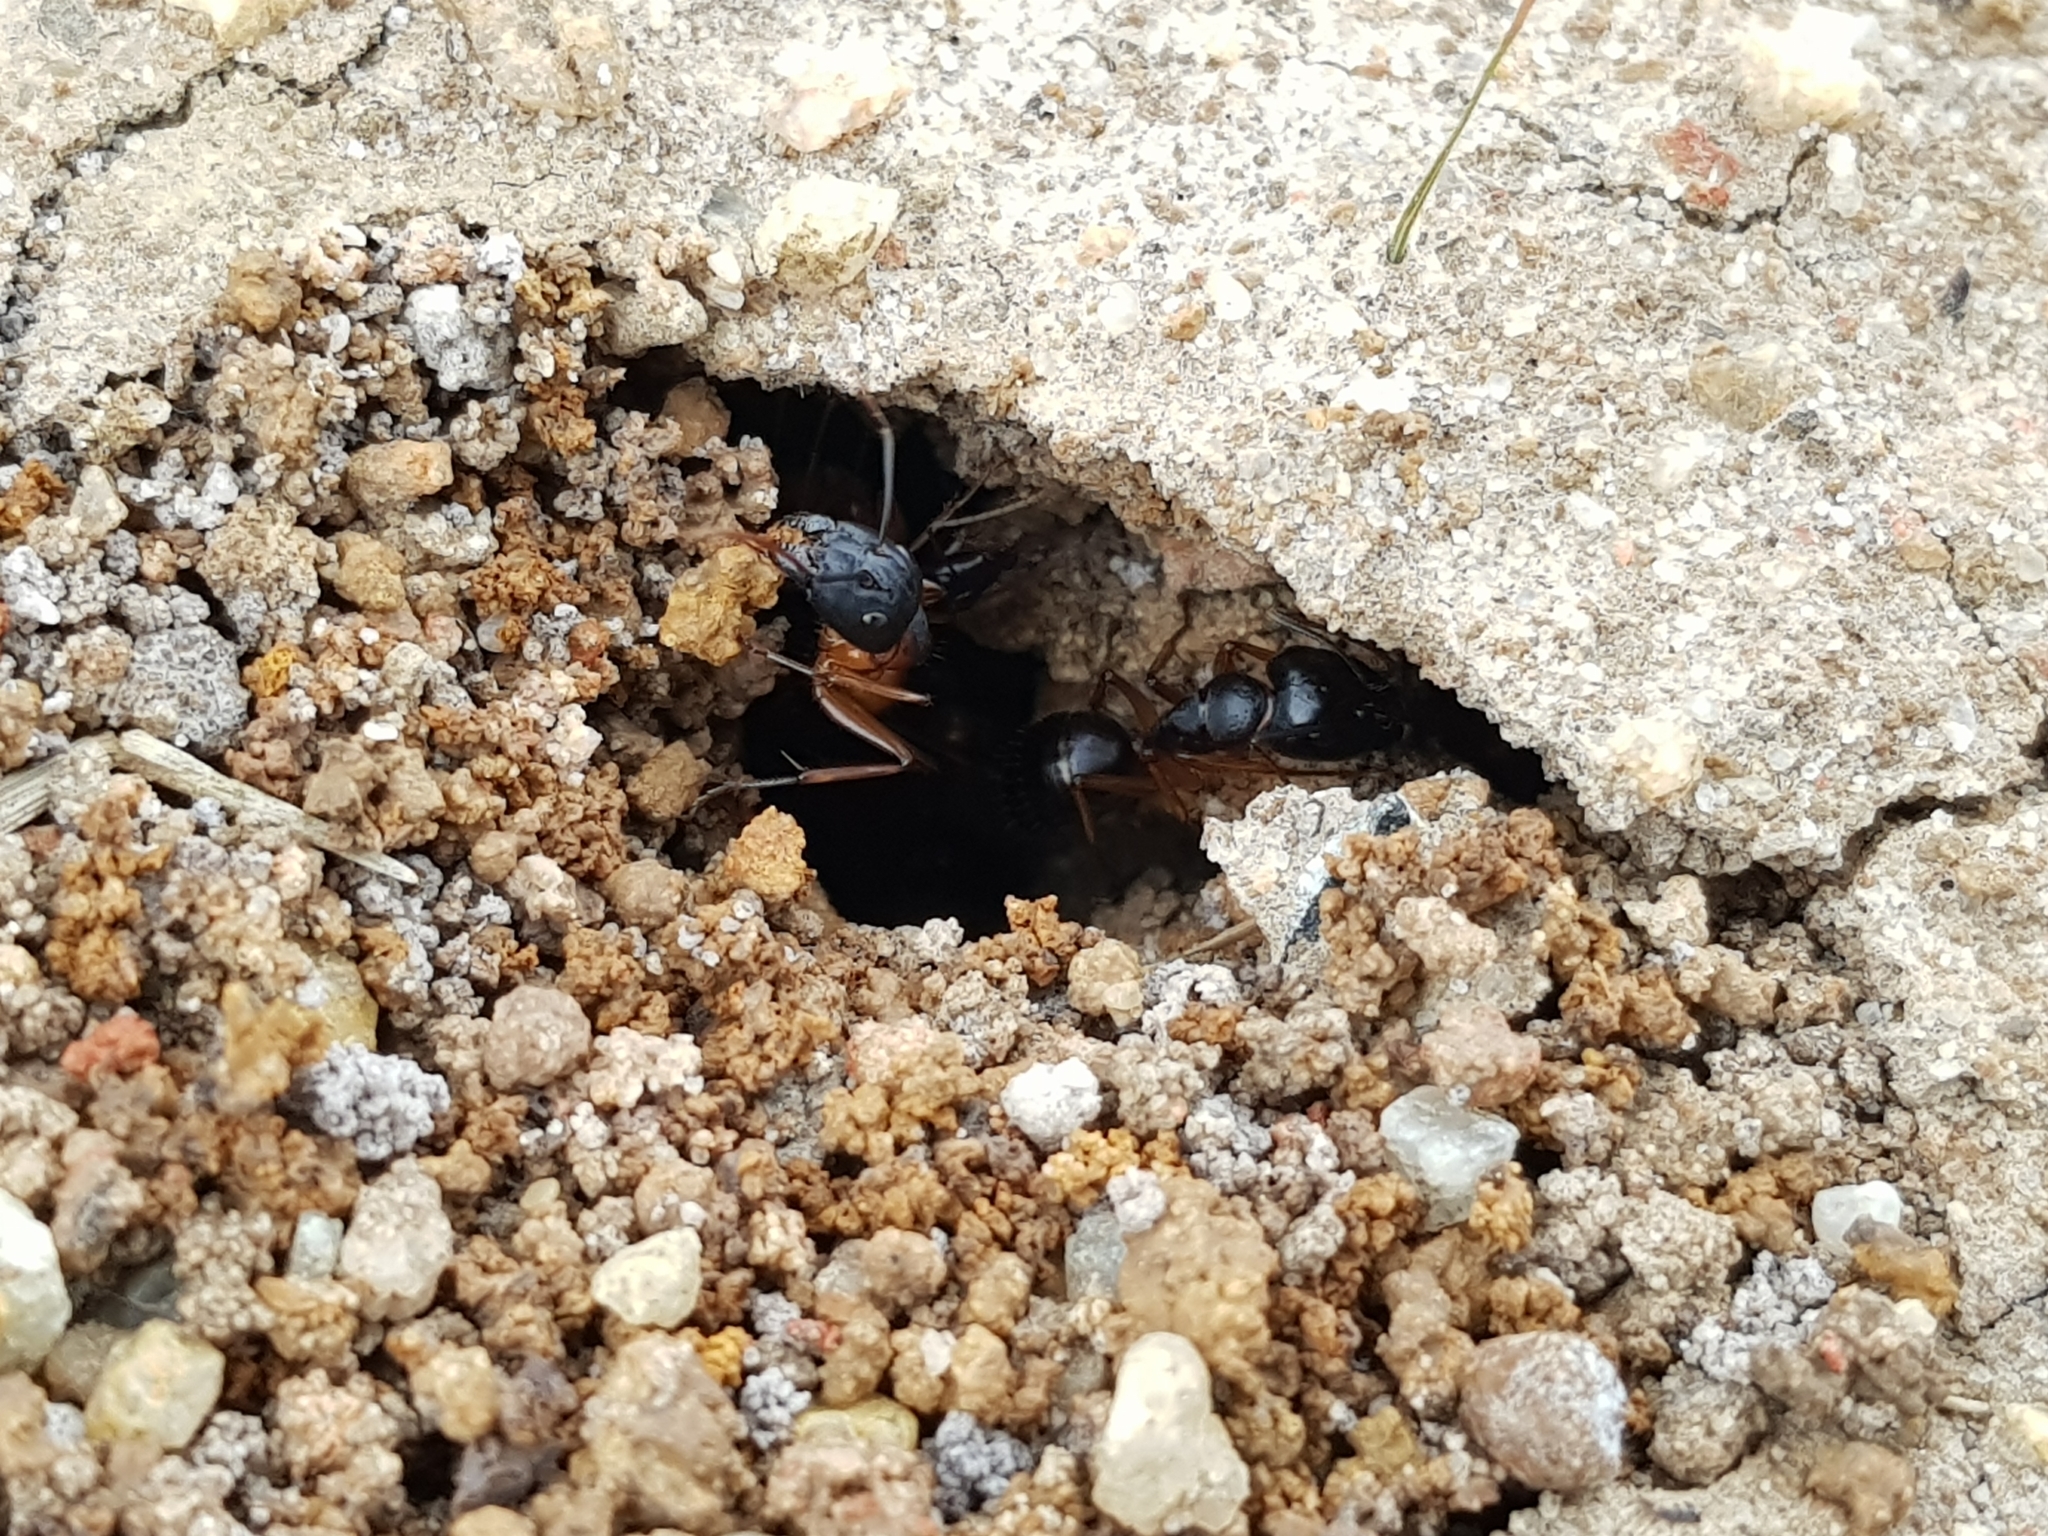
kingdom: Animalia
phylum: Arthropoda
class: Insecta
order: Hymenoptera
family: Formicidae
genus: Camponotus
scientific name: Camponotus consobrinus
